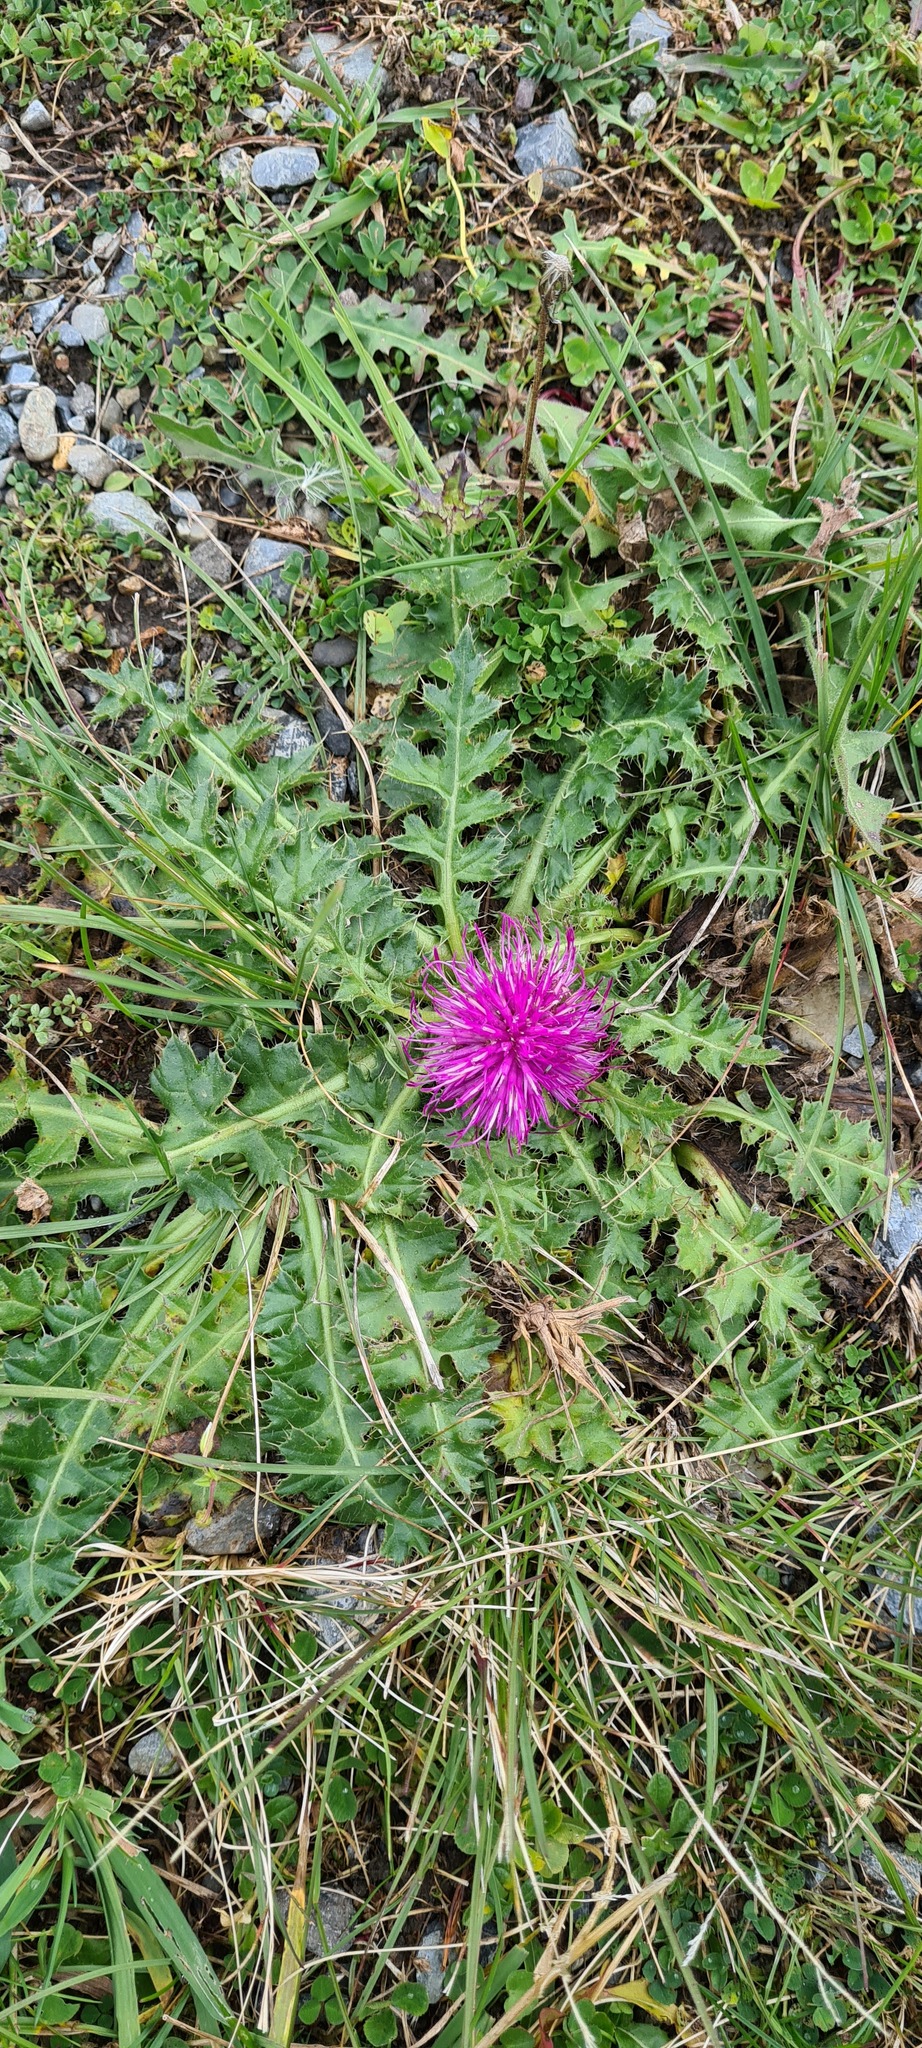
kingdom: Plantae
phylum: Tracheophyta
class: Magnoliopsida
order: Asterales
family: Asteraceae
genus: Cirsium
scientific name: Cirsium acaulon
